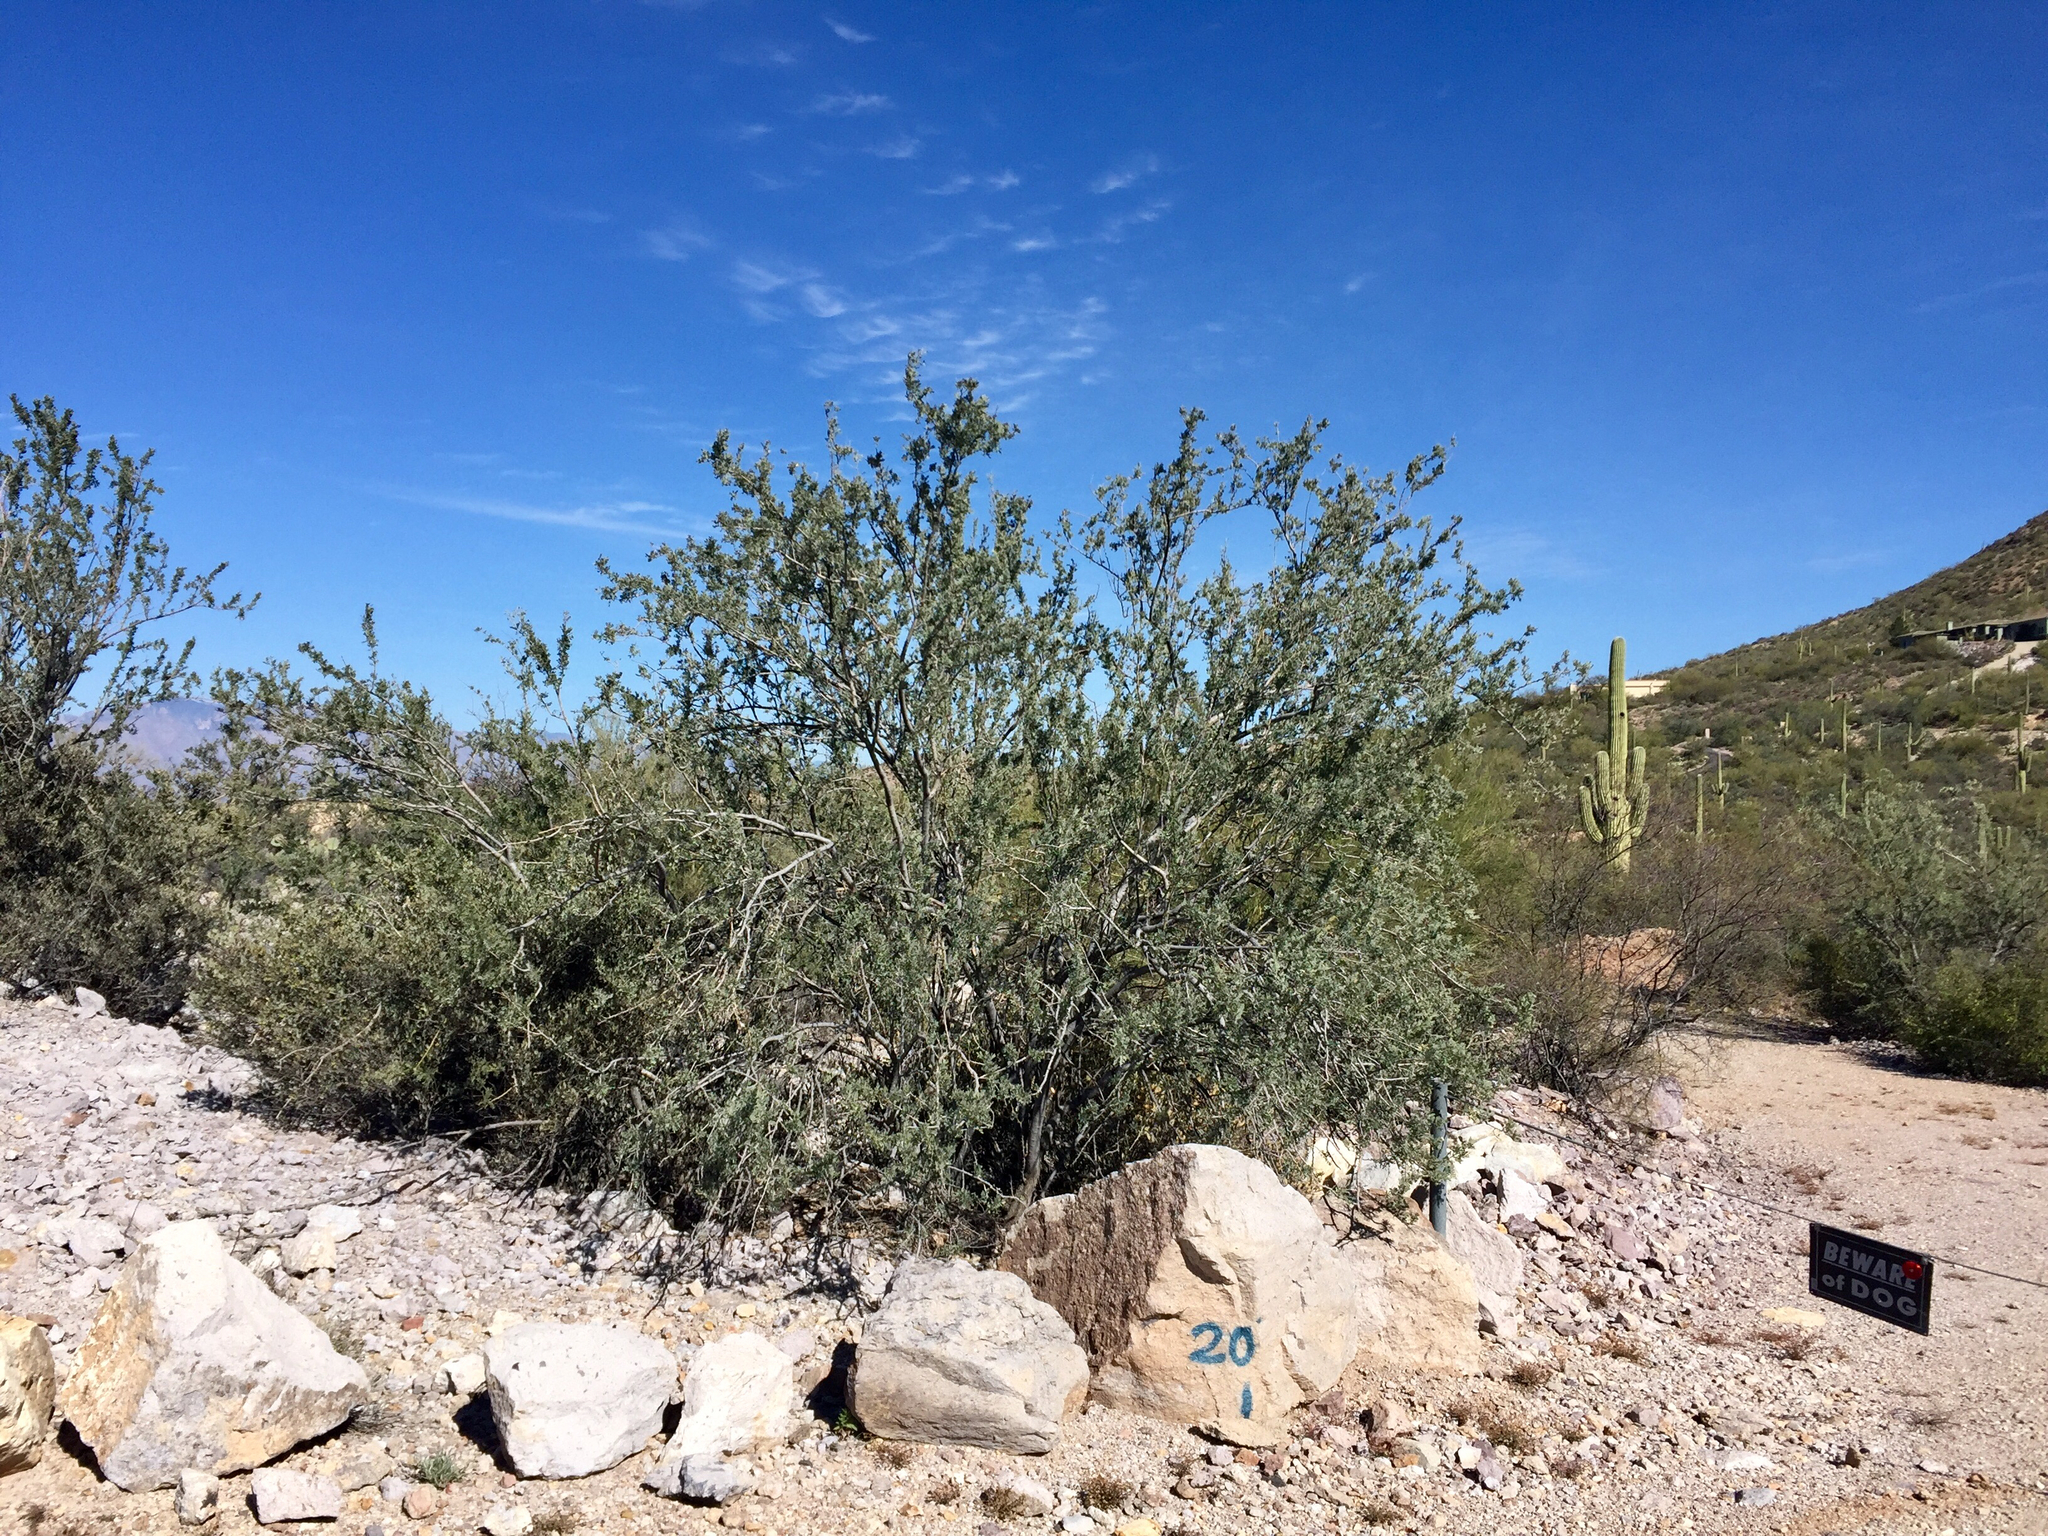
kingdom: Plantae
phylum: Tracheophyta
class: Magnoliopsida
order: Fabales
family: Fabaceae
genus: Olneya
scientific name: Olneya tesota
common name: Desert ironwood
